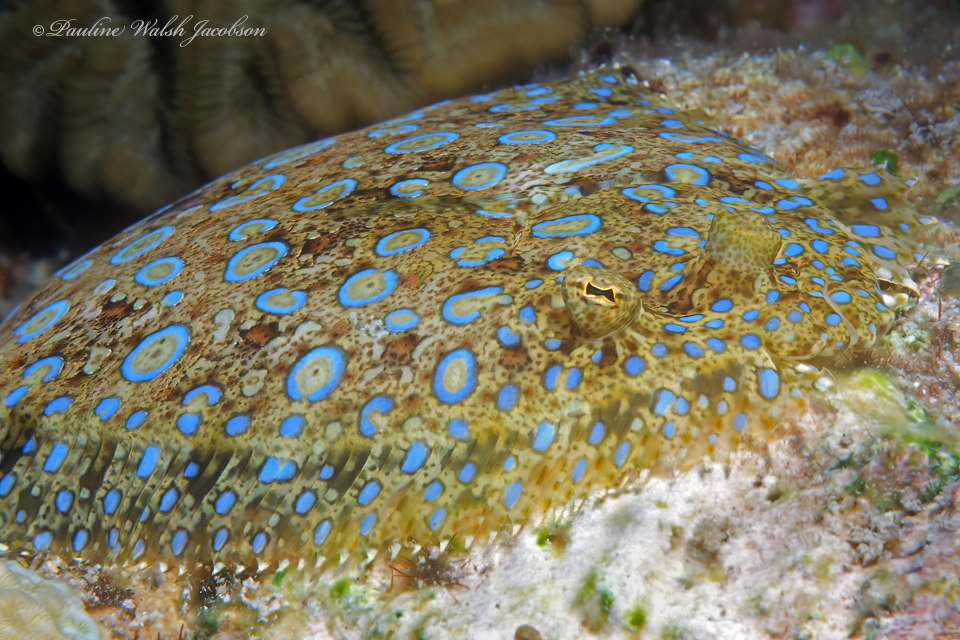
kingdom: Animalia
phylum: Chordata
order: Pleuronectiformes
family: Bothidae
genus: Bothus
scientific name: Bothus lunatus
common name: Peacock flounder
